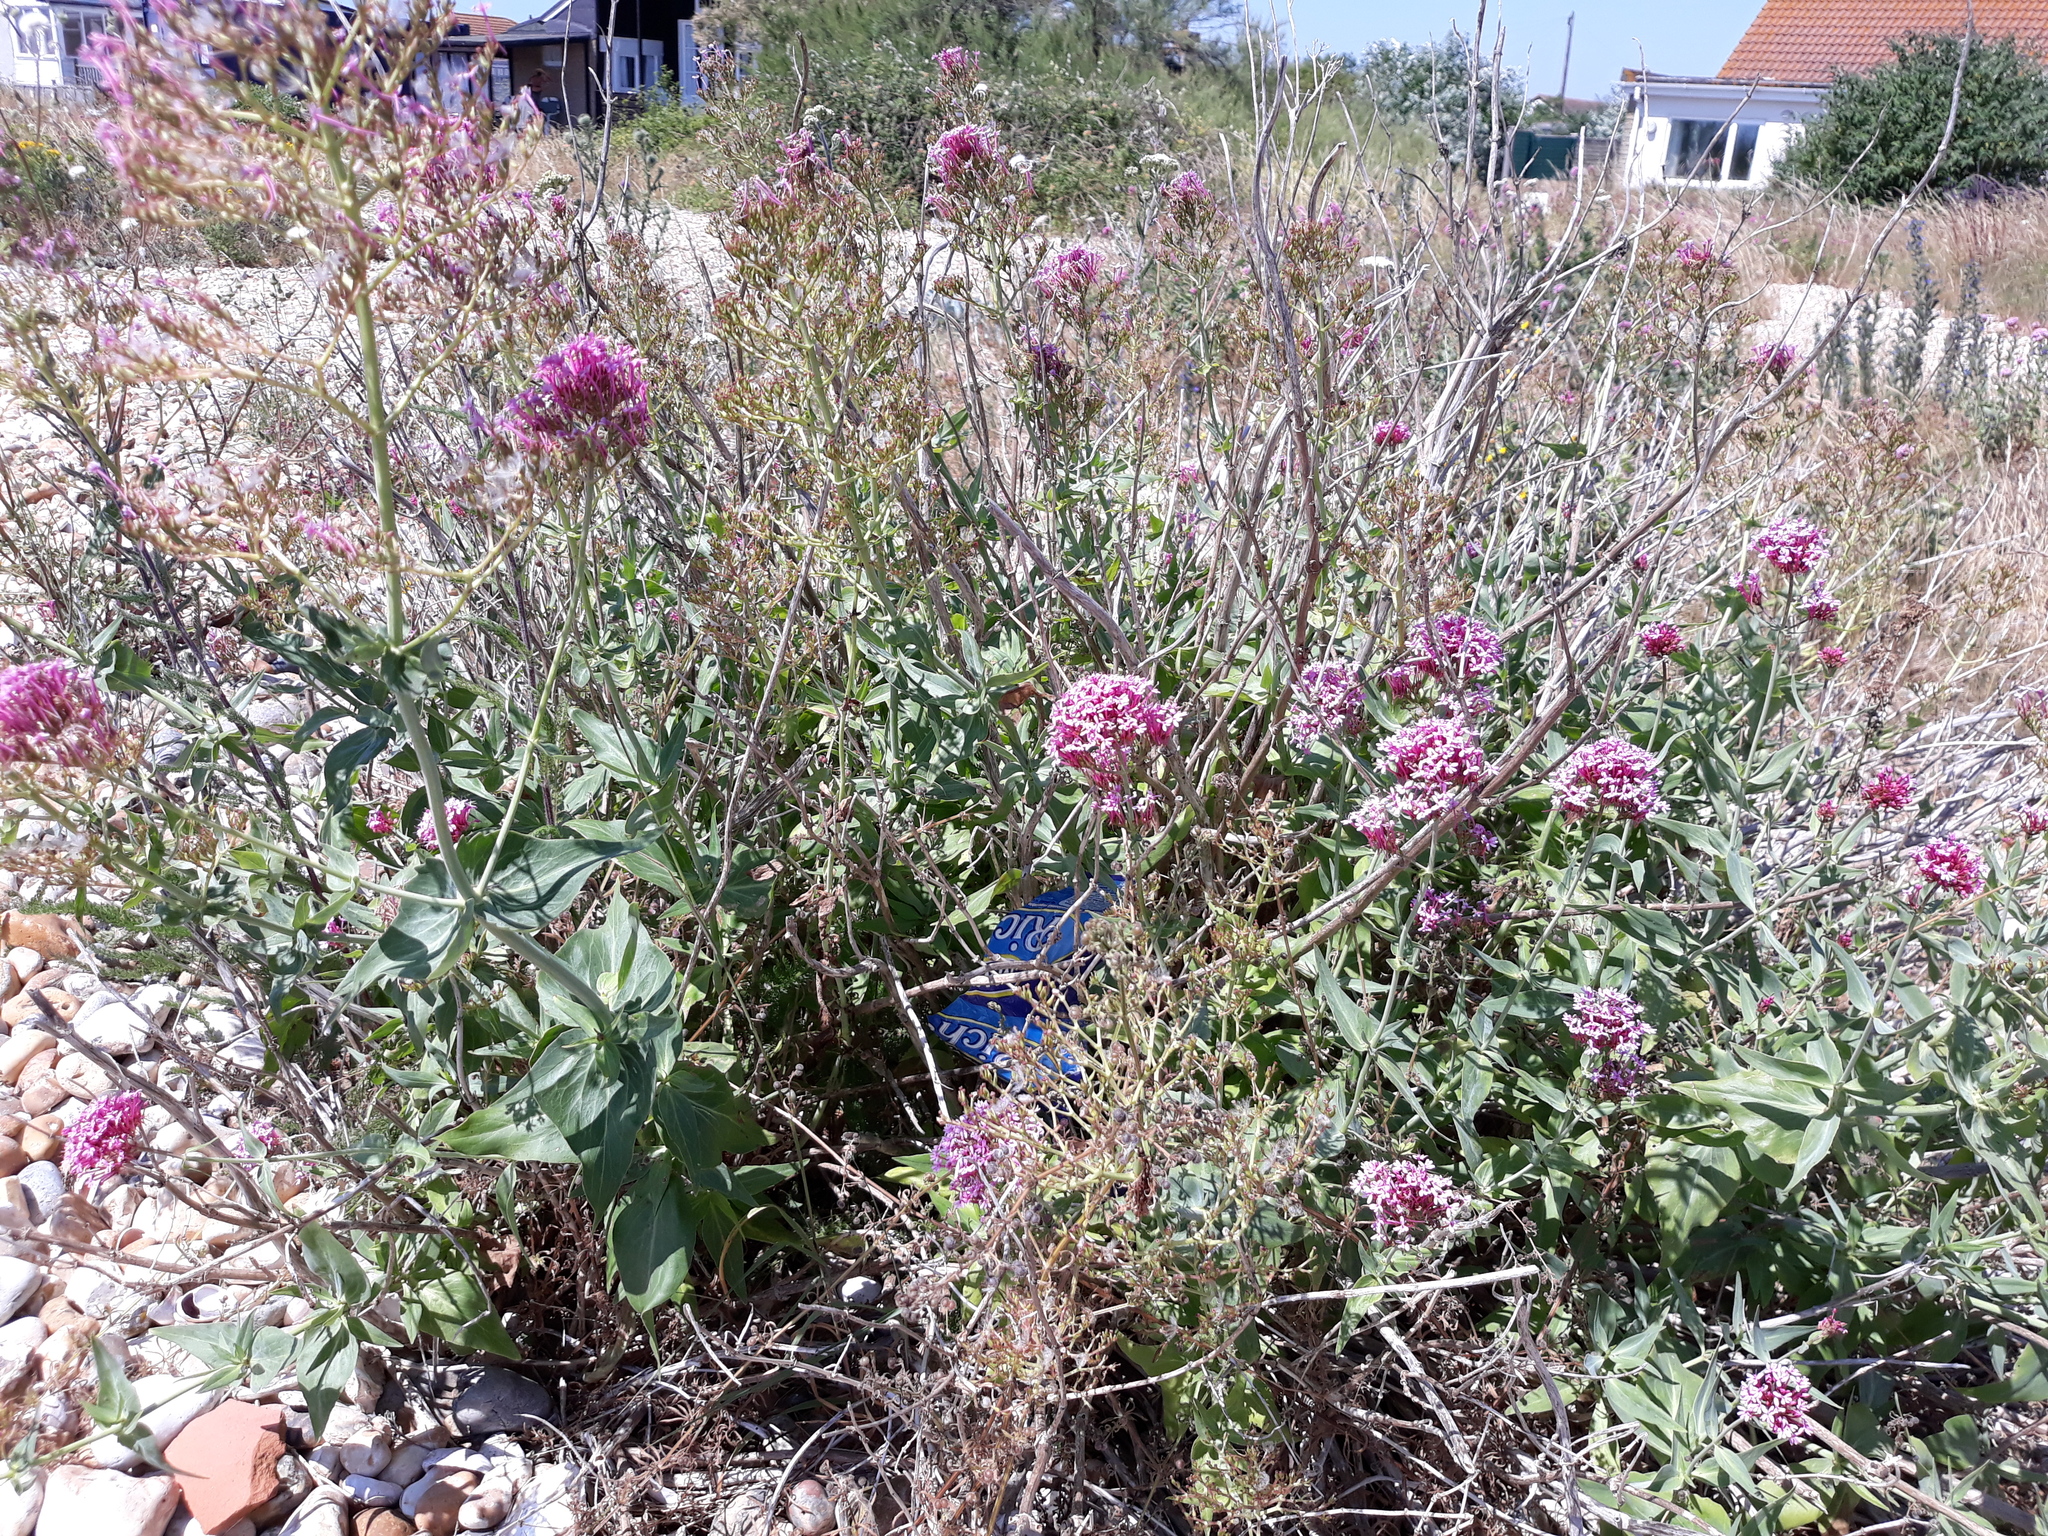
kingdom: Plantae
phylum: Tracheophyta
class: Magnoliopsida
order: Dipsacales
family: Caprifoliaceae
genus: Centranthus
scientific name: Centranthus ruber
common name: Red valerian
